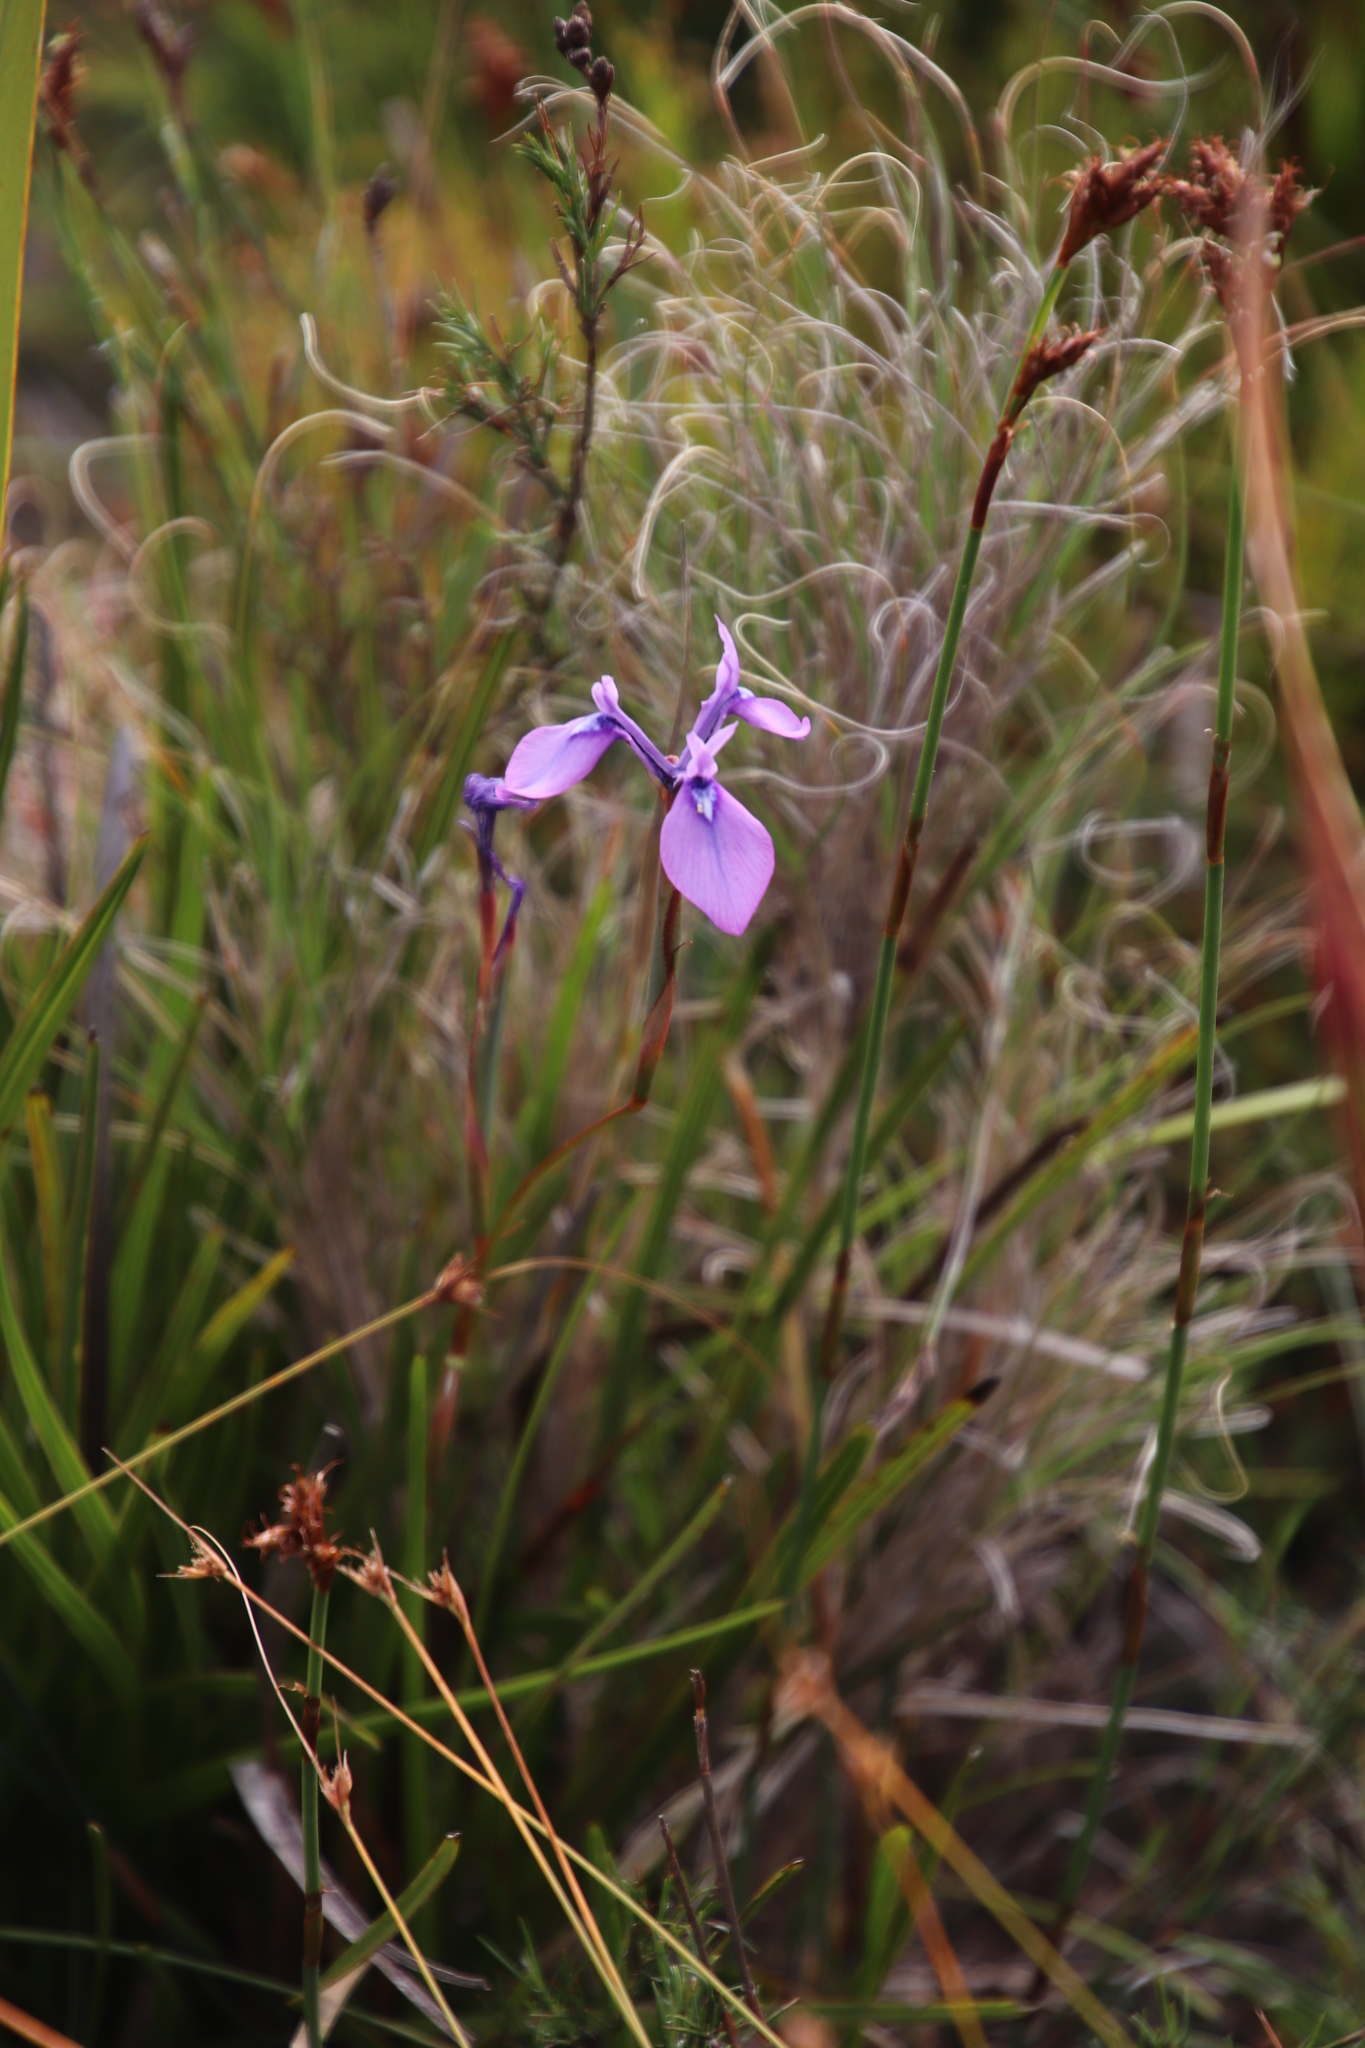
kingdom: Plantae
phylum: Tracheophyta
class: Liliopsida
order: Asparagales
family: Iridaceae
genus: Moraea
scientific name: Moraea tripetala
